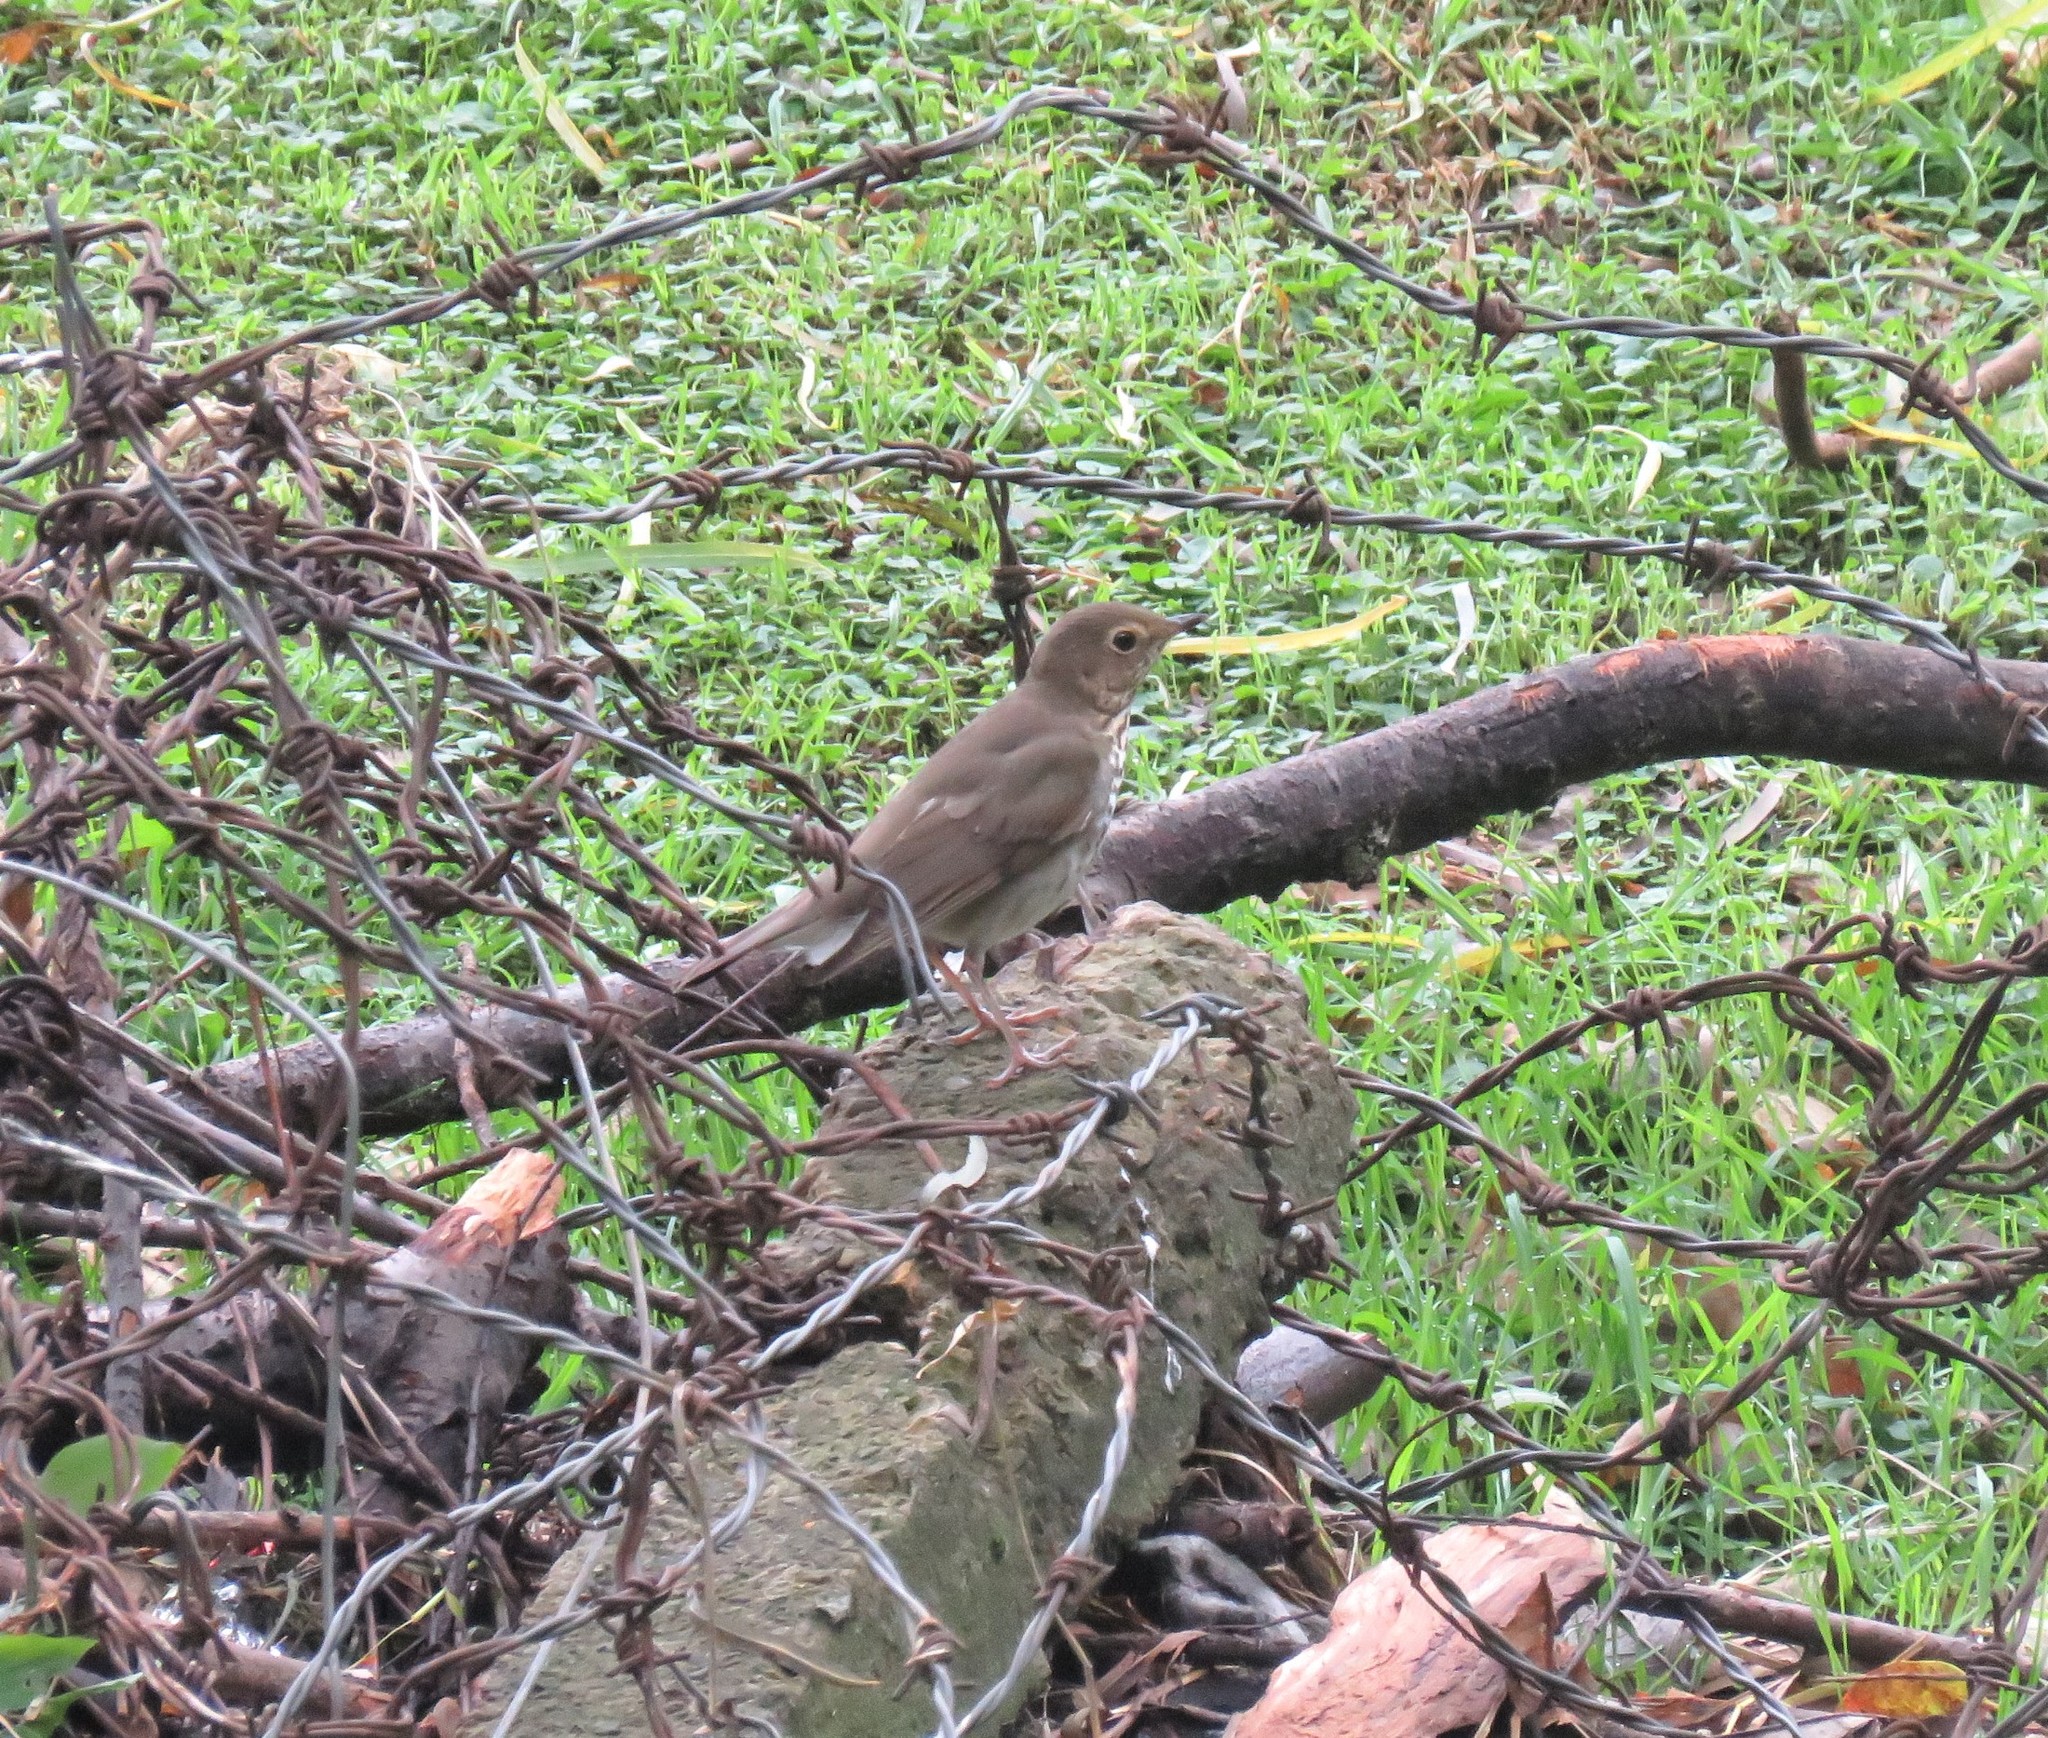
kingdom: Animalia
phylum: Chordata
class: Aves
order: Passeriformes
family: Turdidae
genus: Catharus
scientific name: Catharus ustulatus
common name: Swainson's thrush
